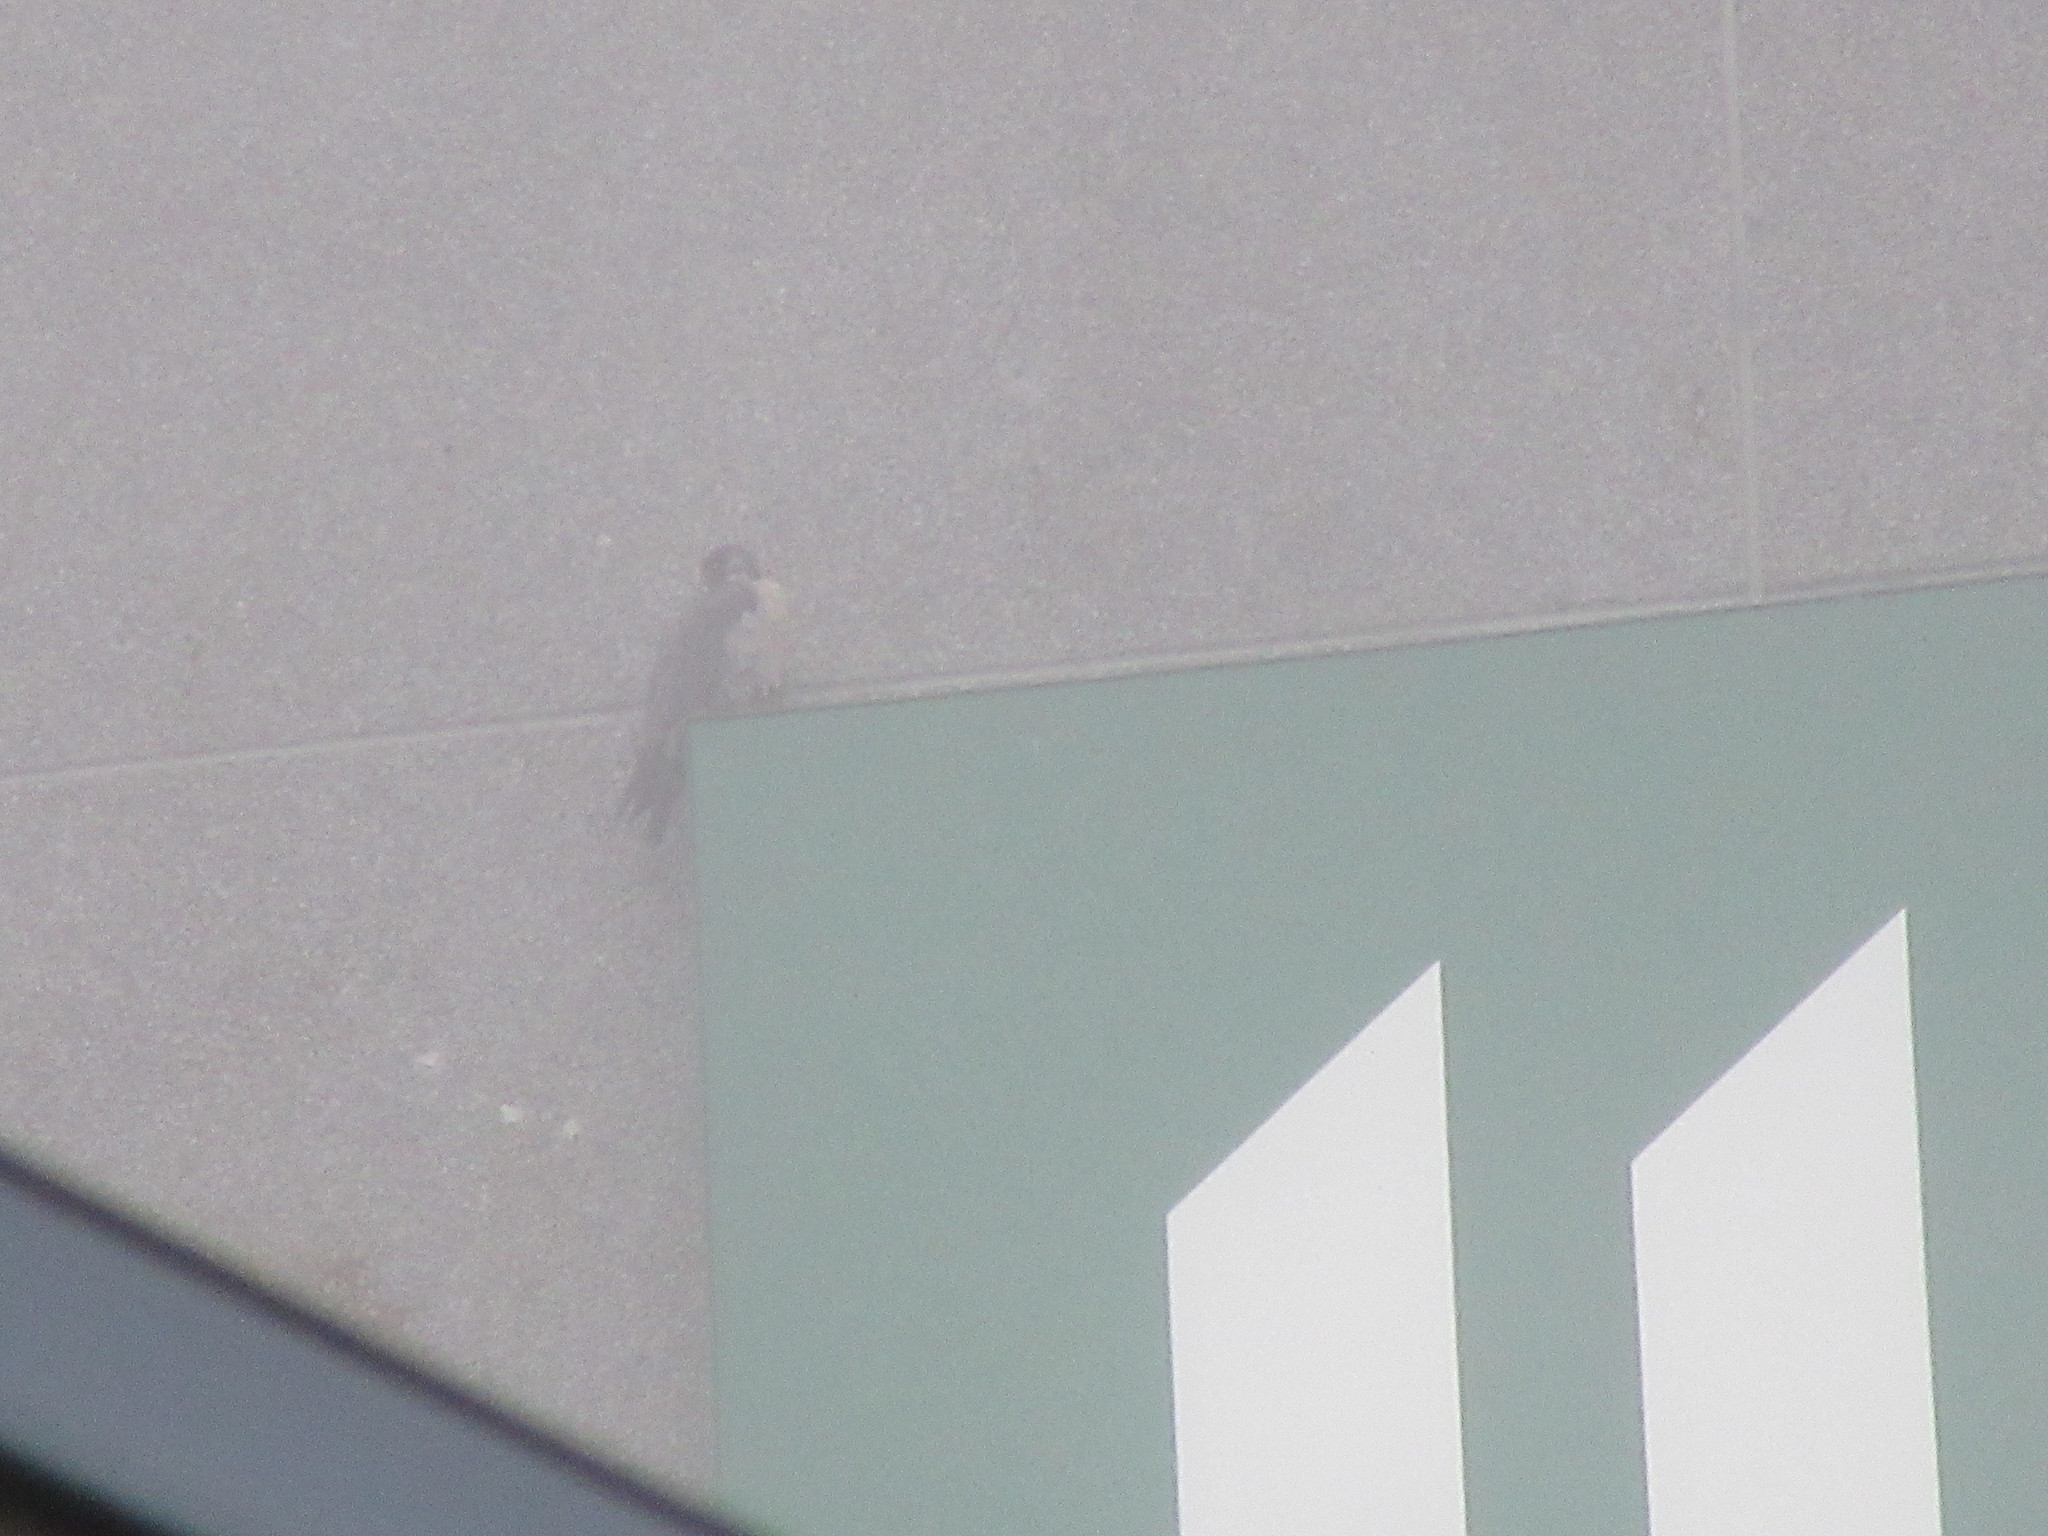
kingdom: Animalia
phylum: Chordata
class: Aves
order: Falconiformes
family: Falconidae
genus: Falco
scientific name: Falco peregrinus
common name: Peregrine falcon
